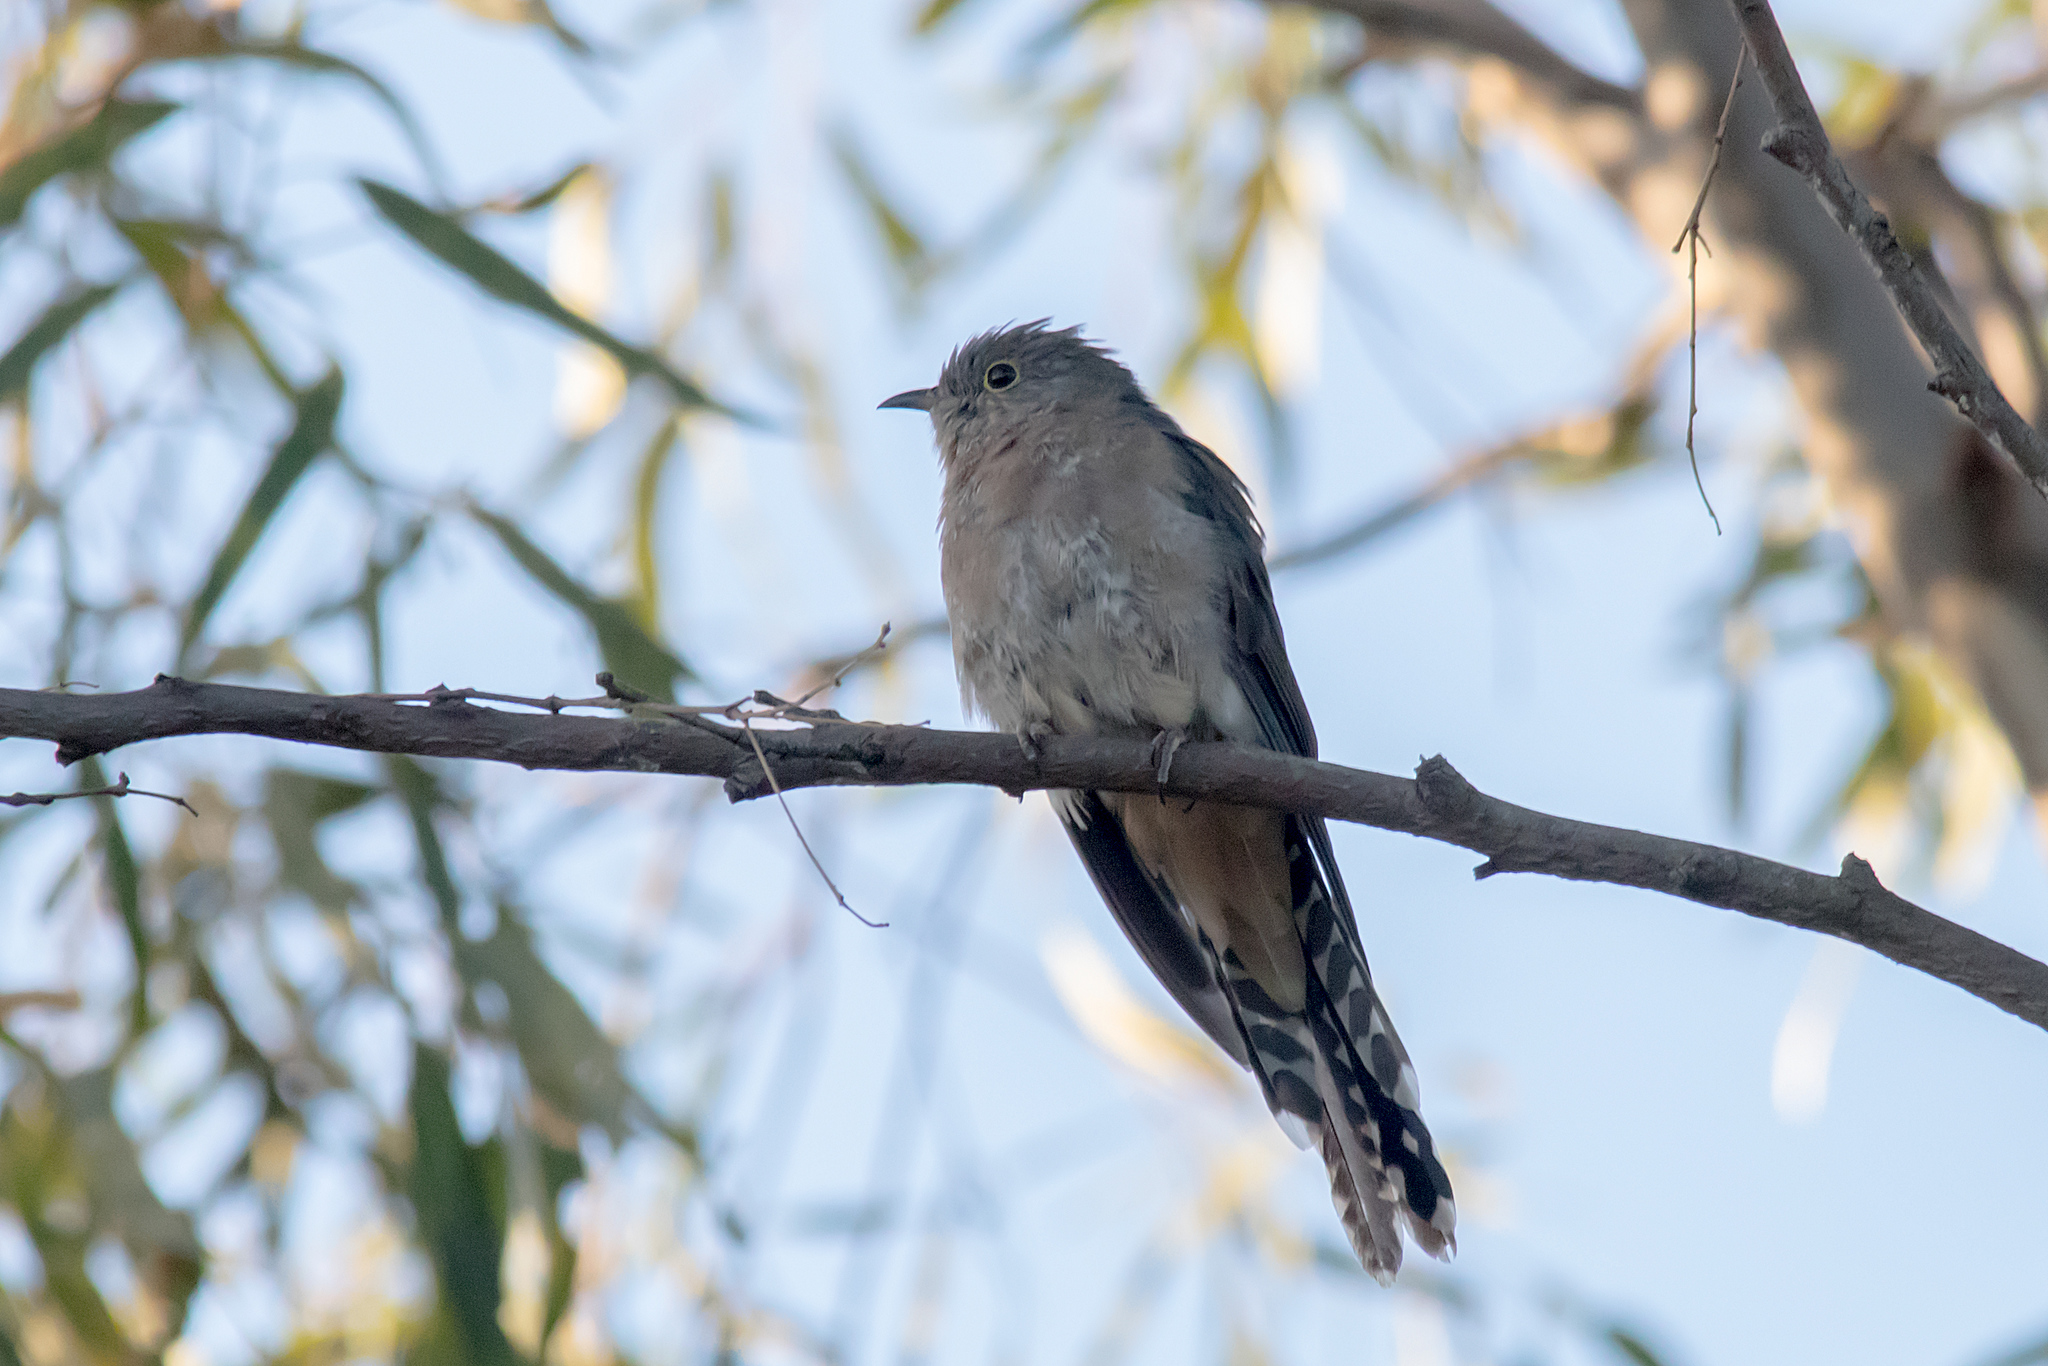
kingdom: Animalia
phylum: Chordata
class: Aves
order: Cuculiformes
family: Cuculidae
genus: Cacomantis
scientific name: Cacomantis flabelliformis
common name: Fan-tailed cuckoo
